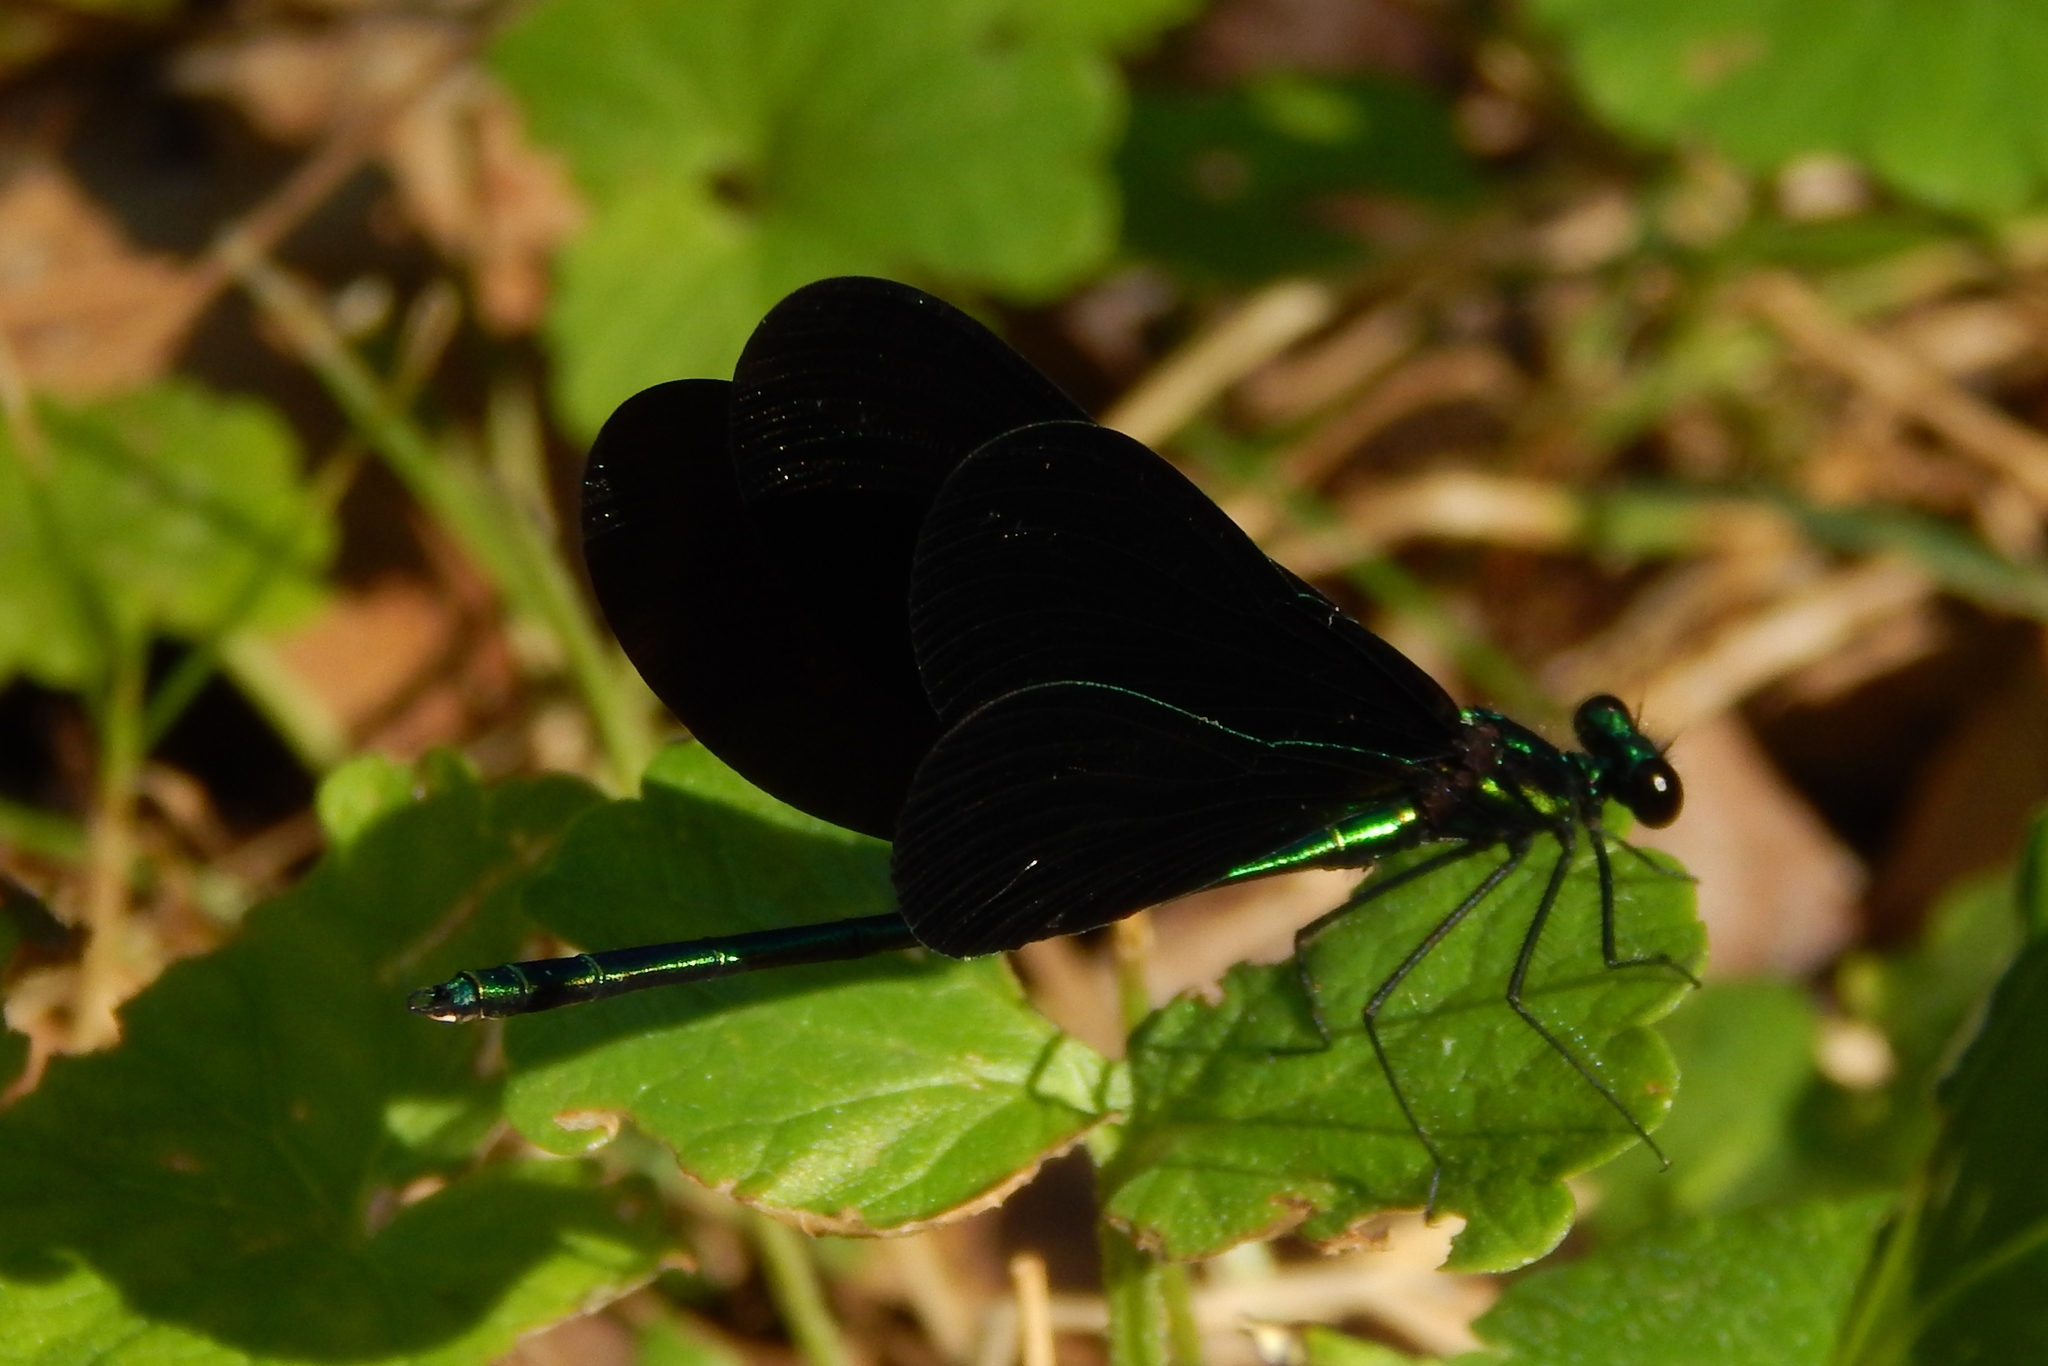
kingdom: Animalia
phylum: Arthropoda
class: Insecta
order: Odonata
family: Calopterygidae
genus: Calopteryx
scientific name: Calopteryx maculata
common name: Ebony jewelwing
